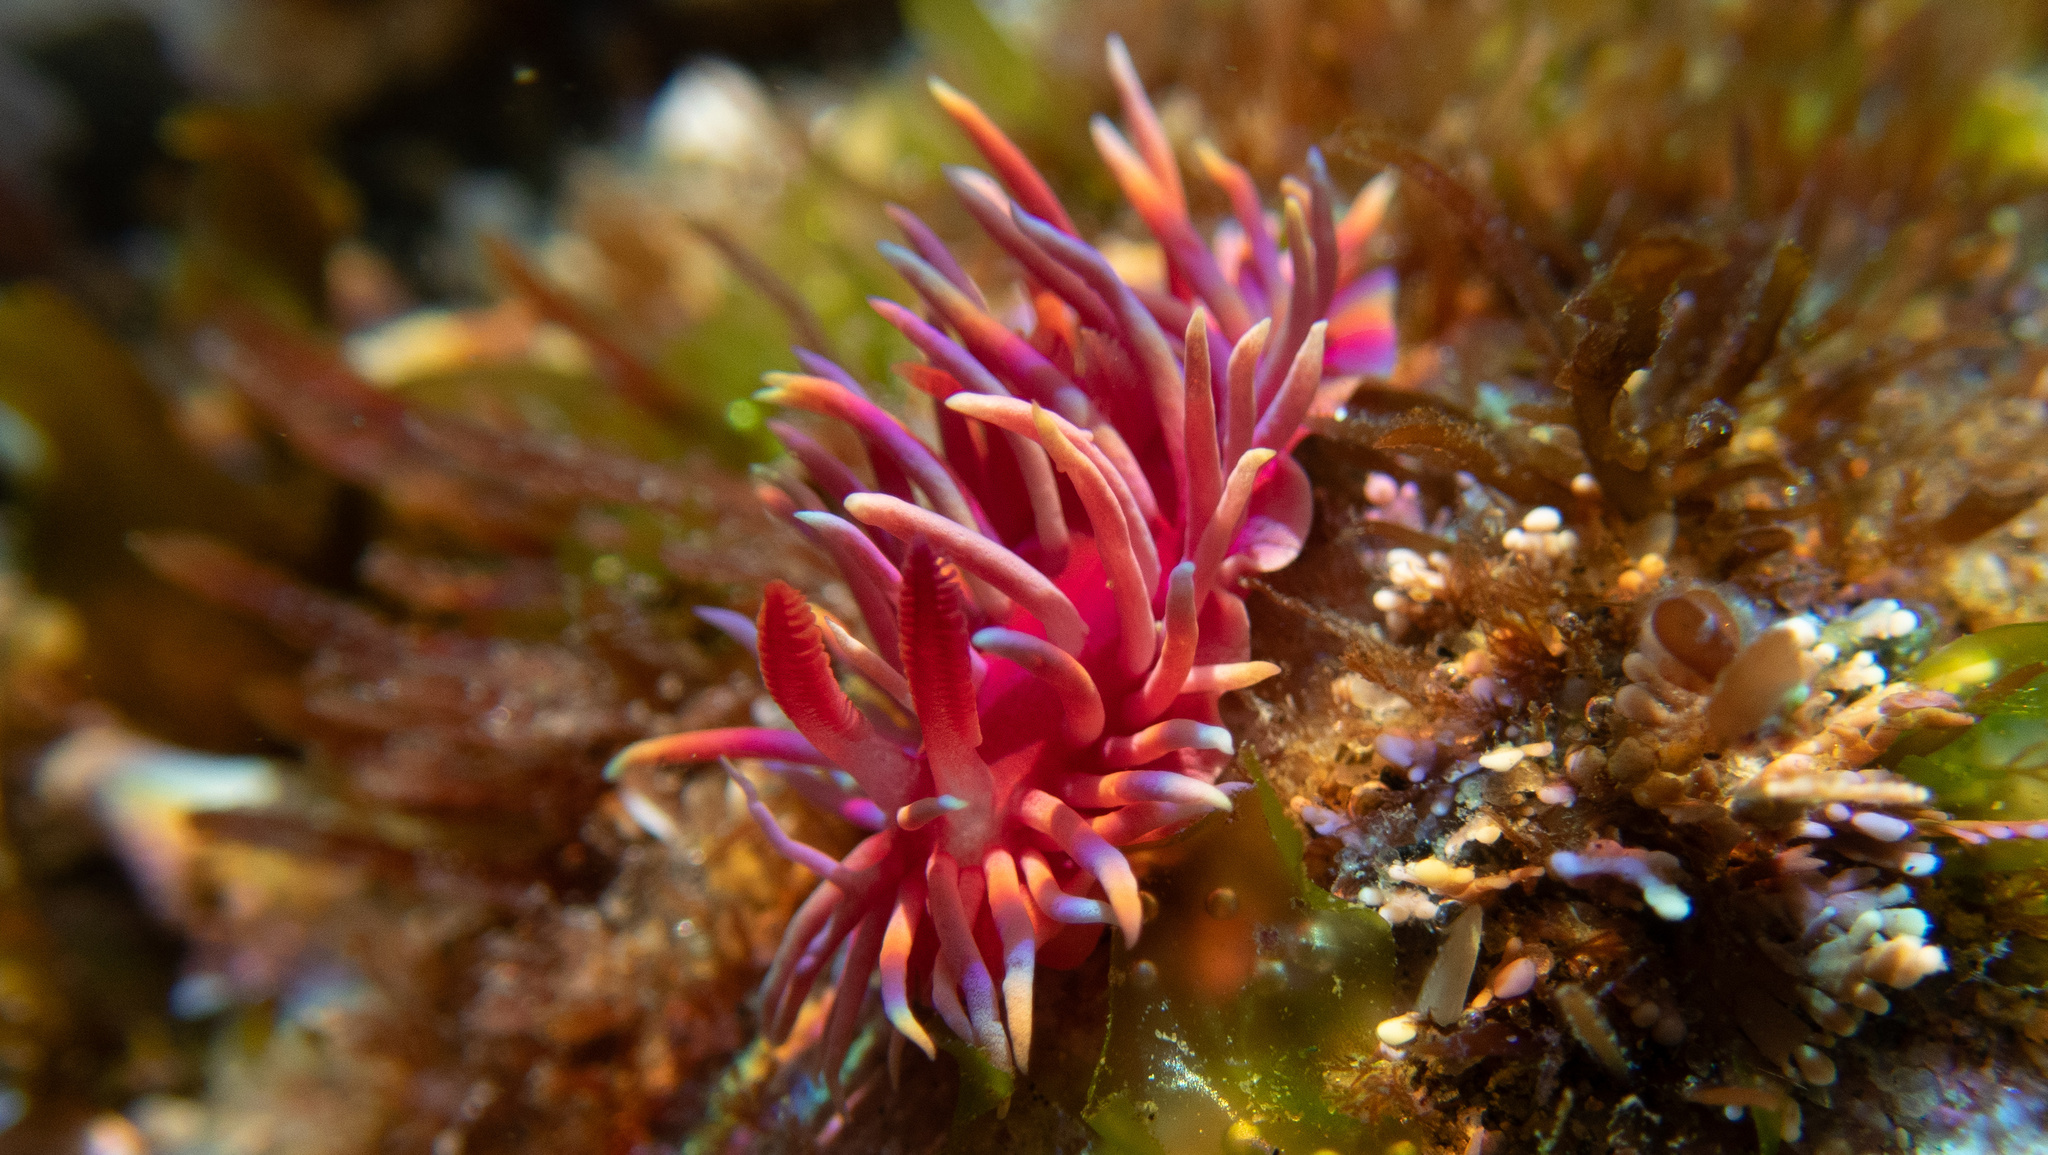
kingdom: Animalia
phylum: Mollusca
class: Gastropoda
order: Nudibranchia
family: Goniodorididae
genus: Okenia
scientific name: Okenia
